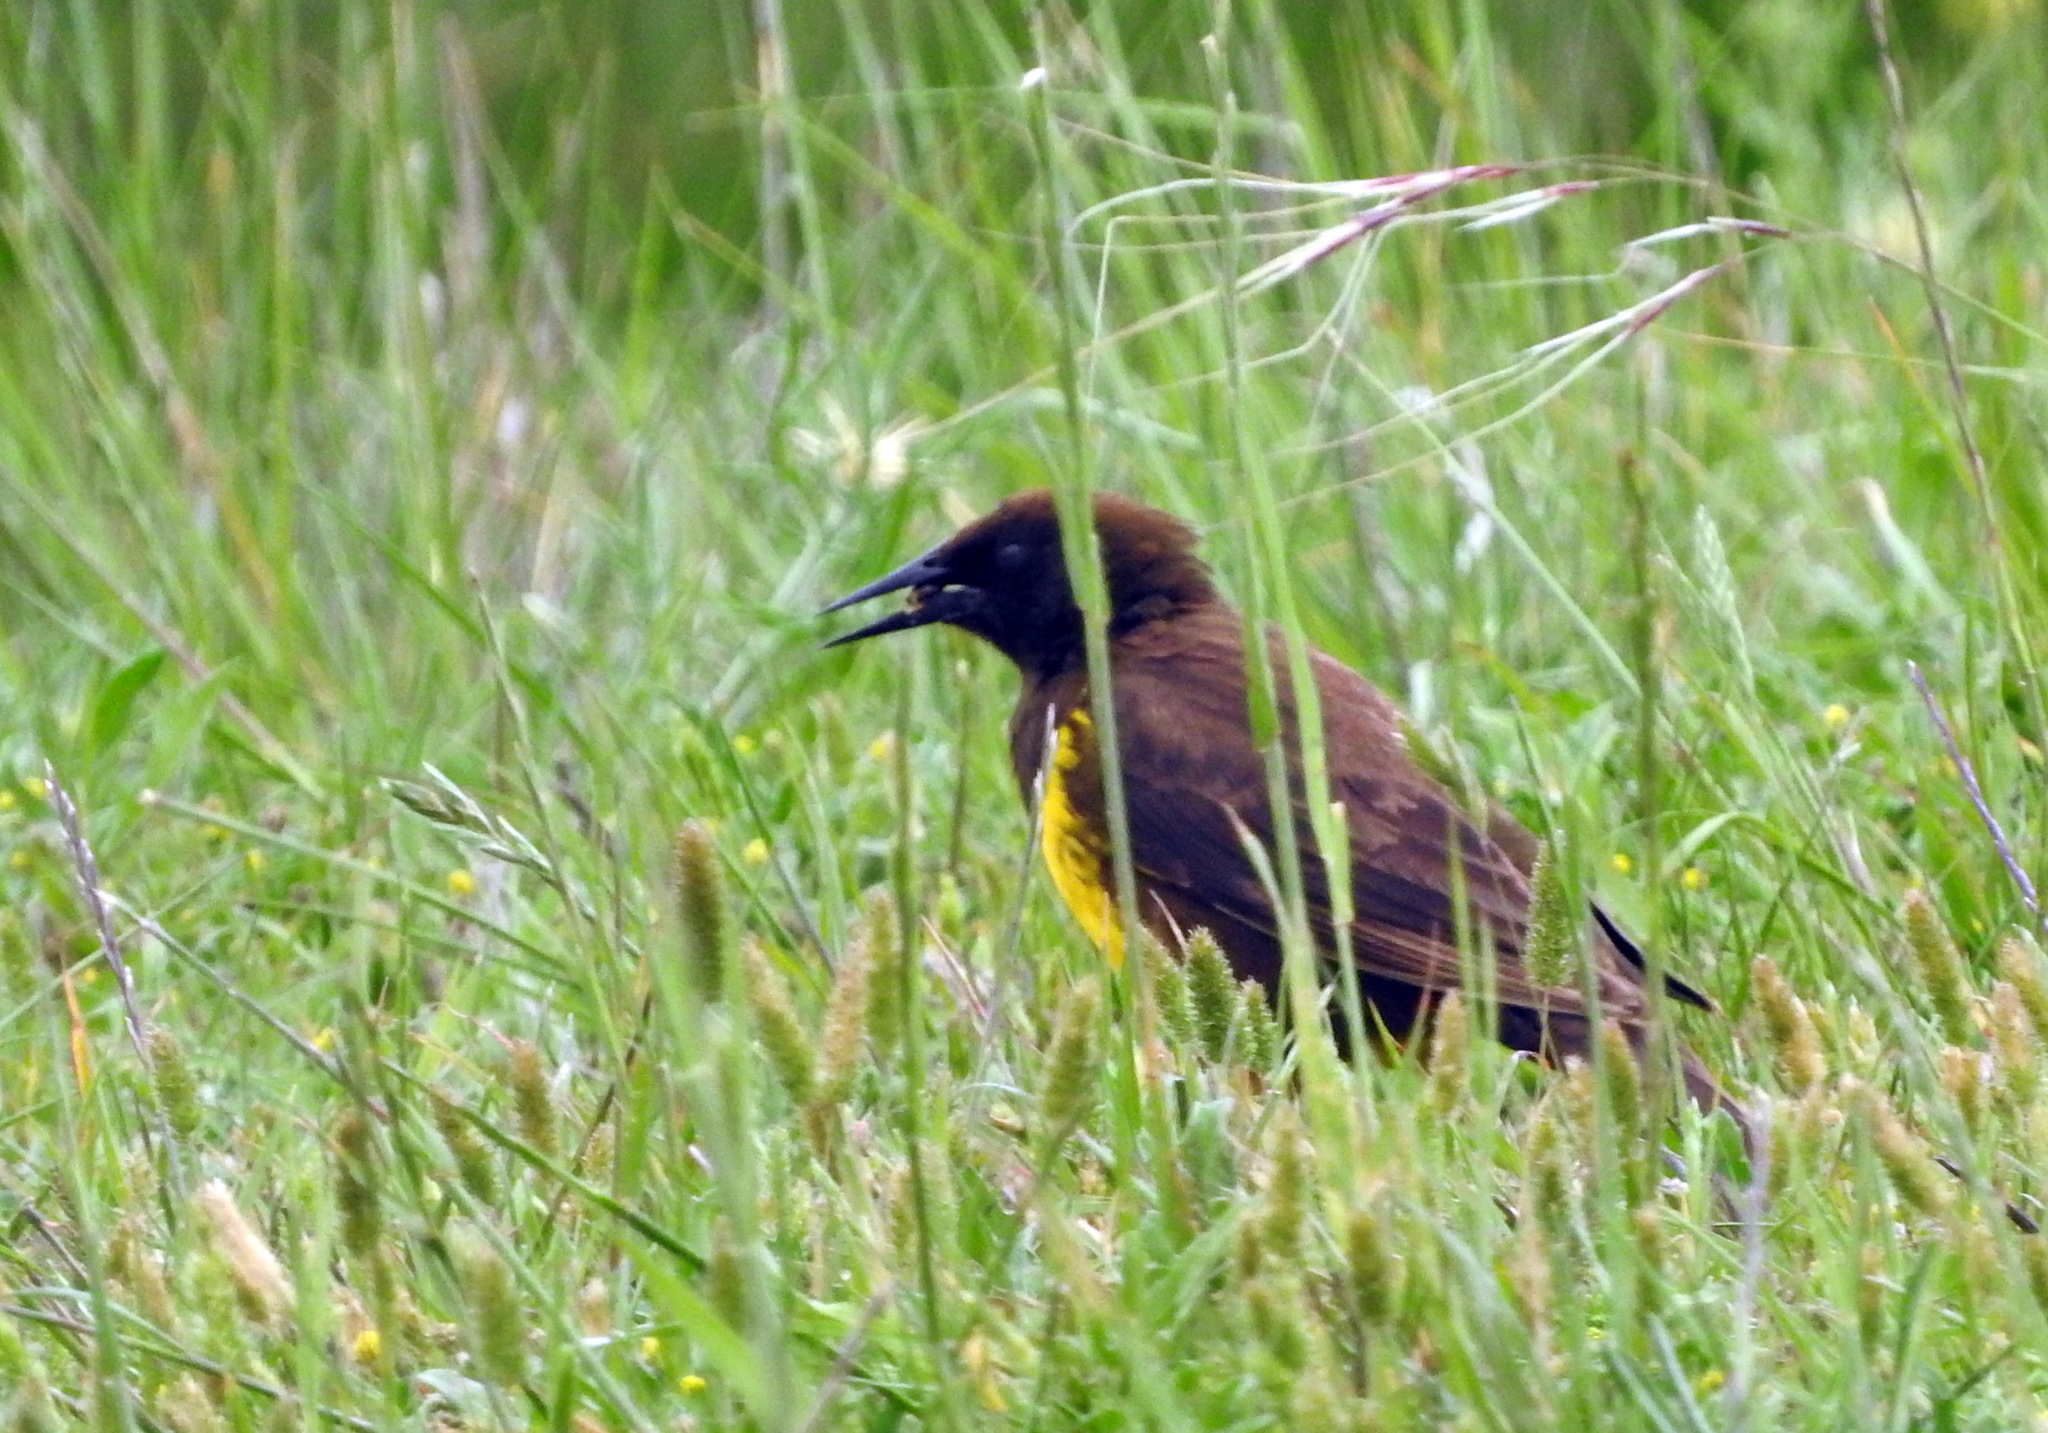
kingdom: Animalia
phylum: Chordata
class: Aves
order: Passeriformes
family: Icteridae
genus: Pseudoleistes
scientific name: Pseudoleistes virescens
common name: Brown-and-yellow marshbird
